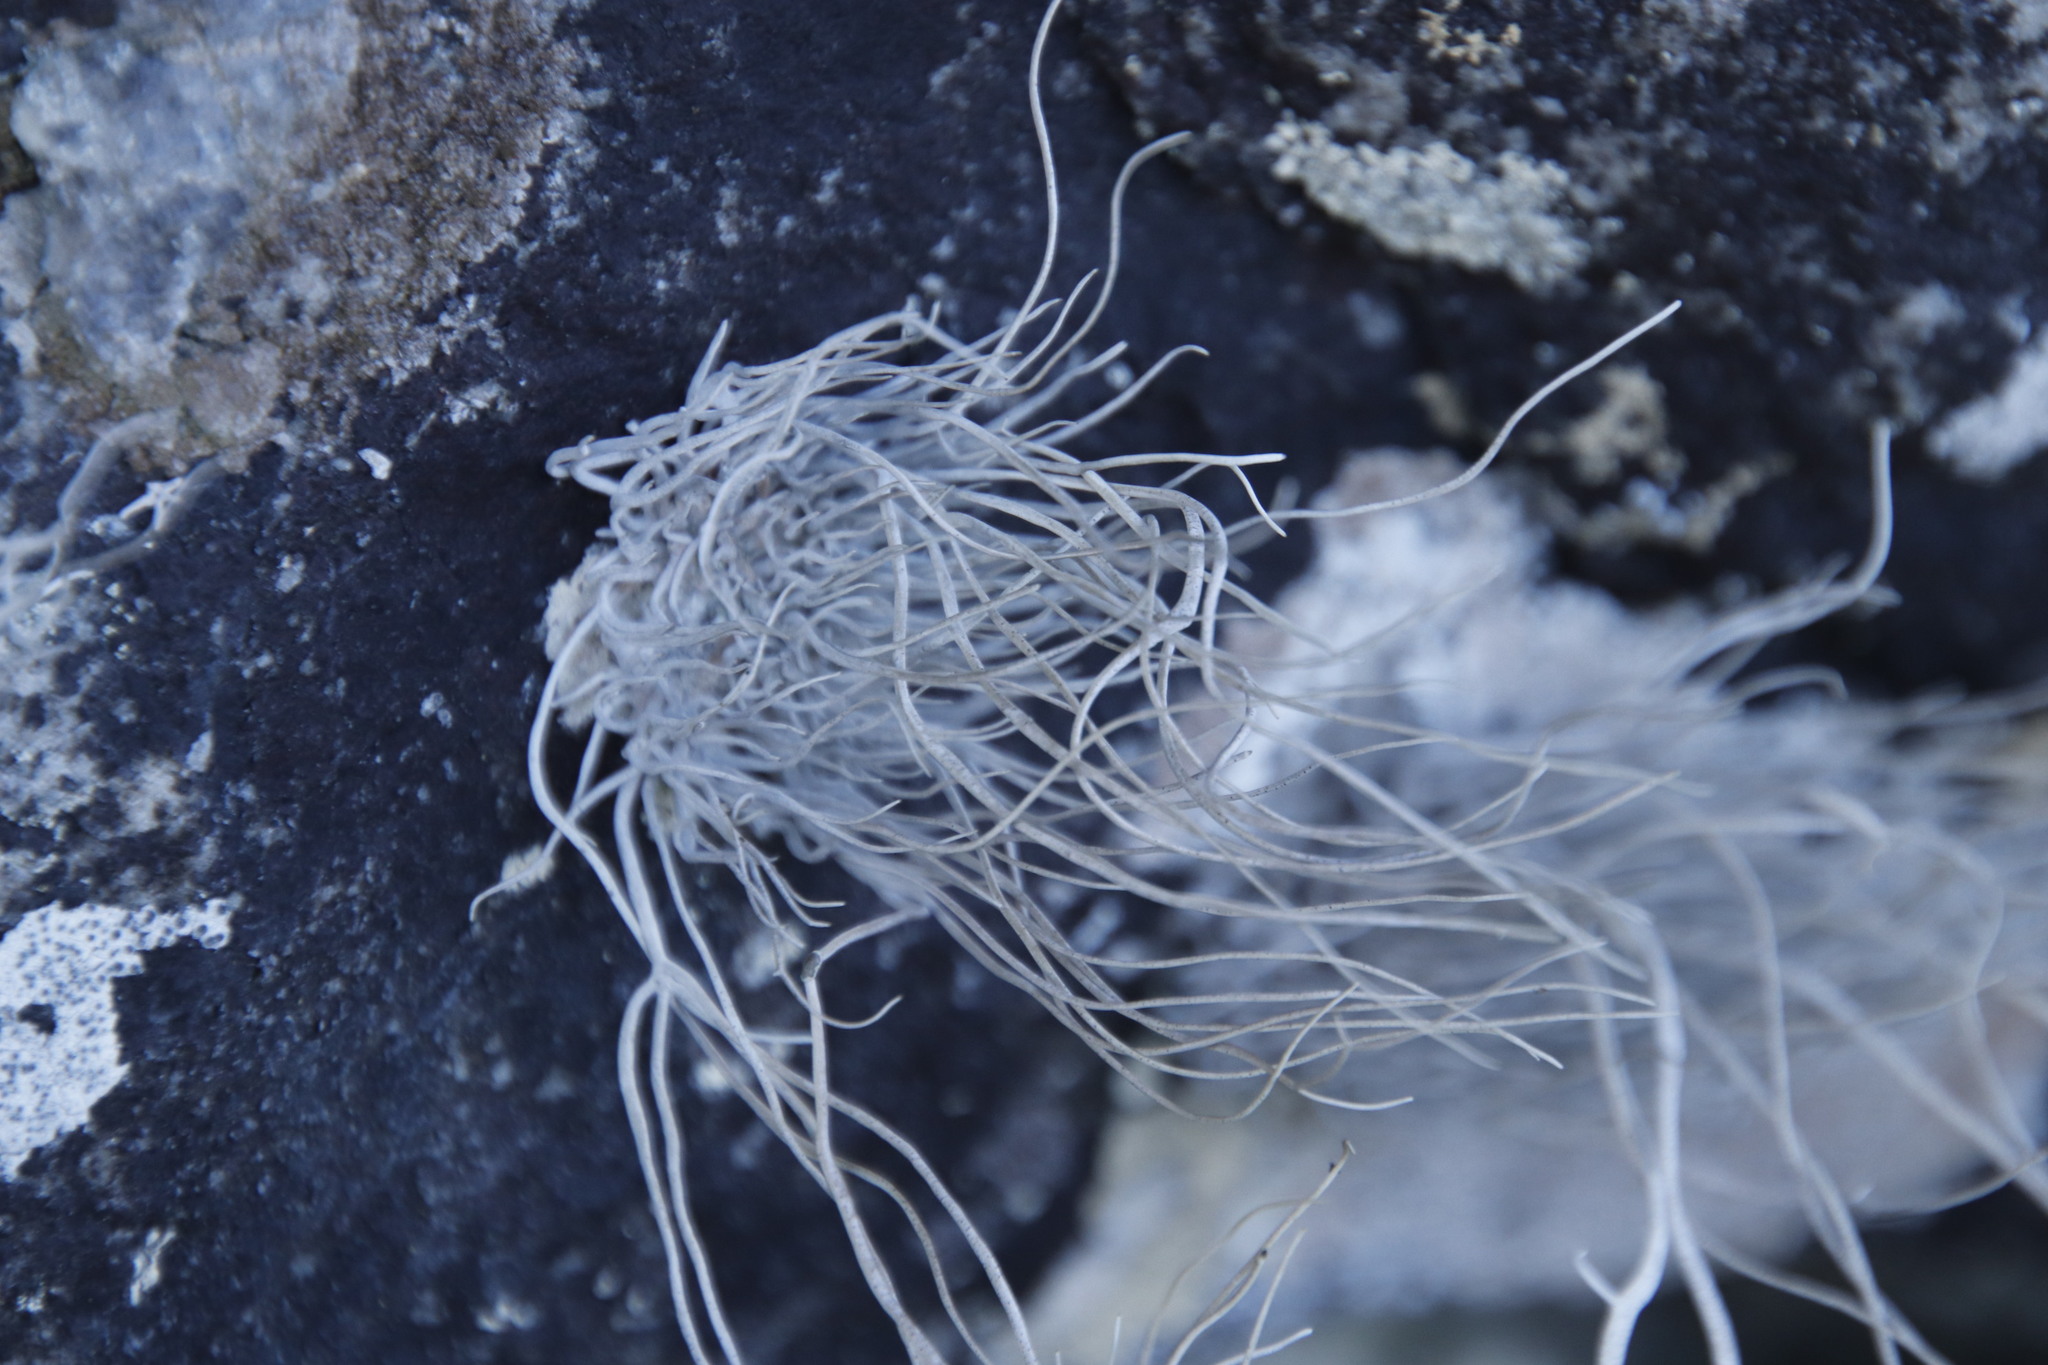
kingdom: Fungi
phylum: Ascomycota
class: Arthoniomycetes
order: Arthoniales
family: Roccellaceae
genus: Roccellina
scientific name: Roccellina hypomecha
